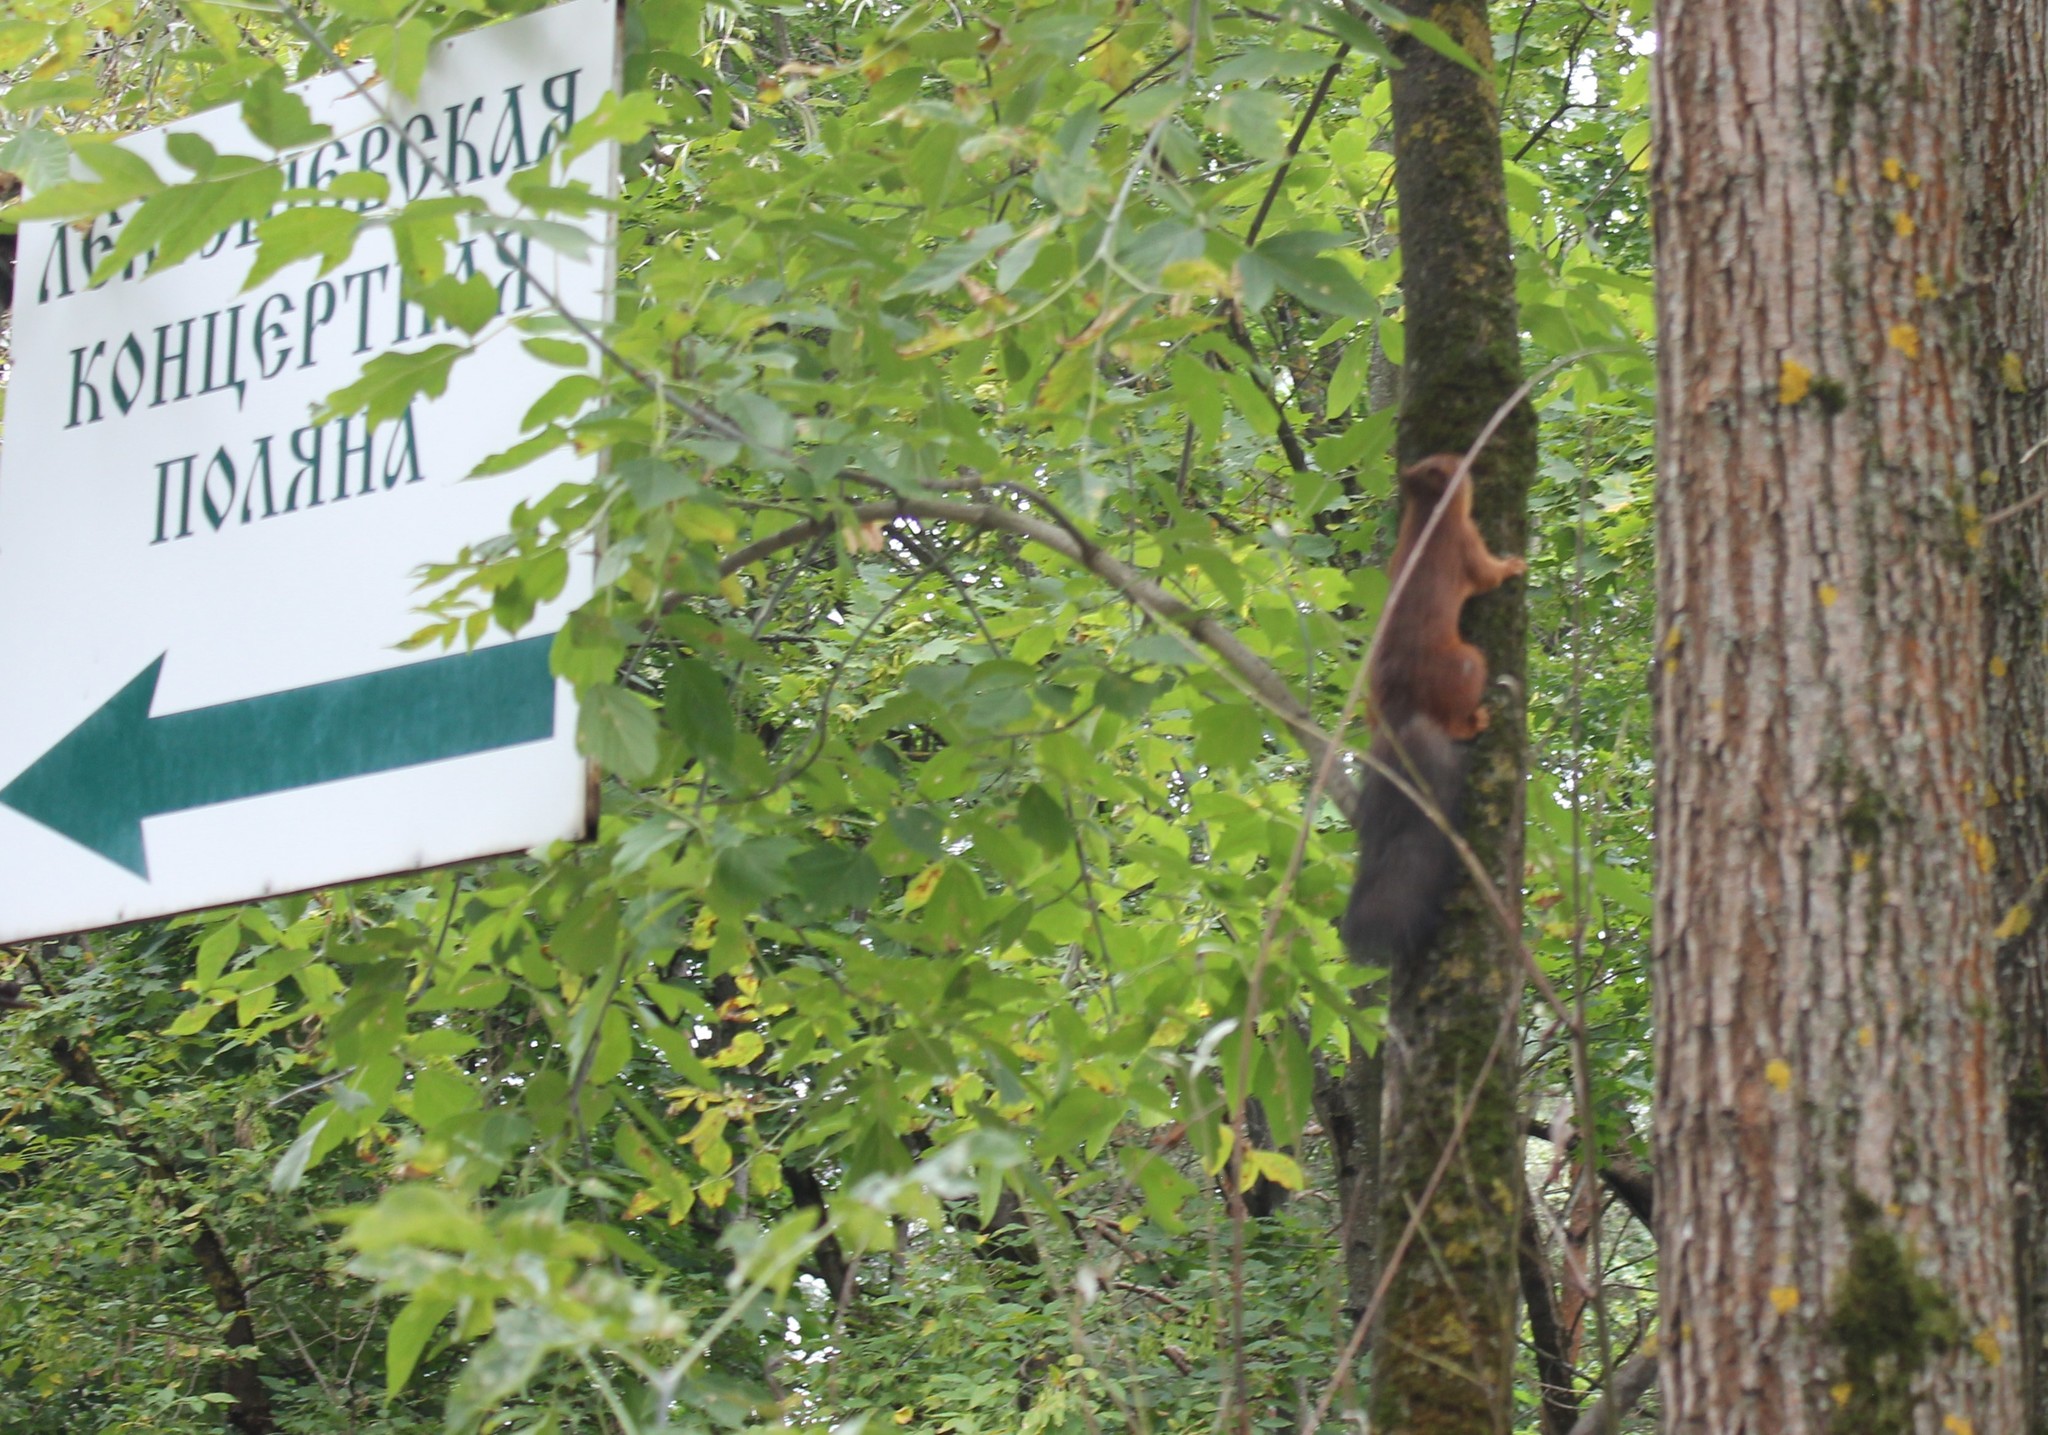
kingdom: Animalia
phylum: Chordata
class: Mammalia
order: Rodentia
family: Sciuridae
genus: Sciurus
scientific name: Sciurus vulgaris
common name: Eurasian red squirrel
